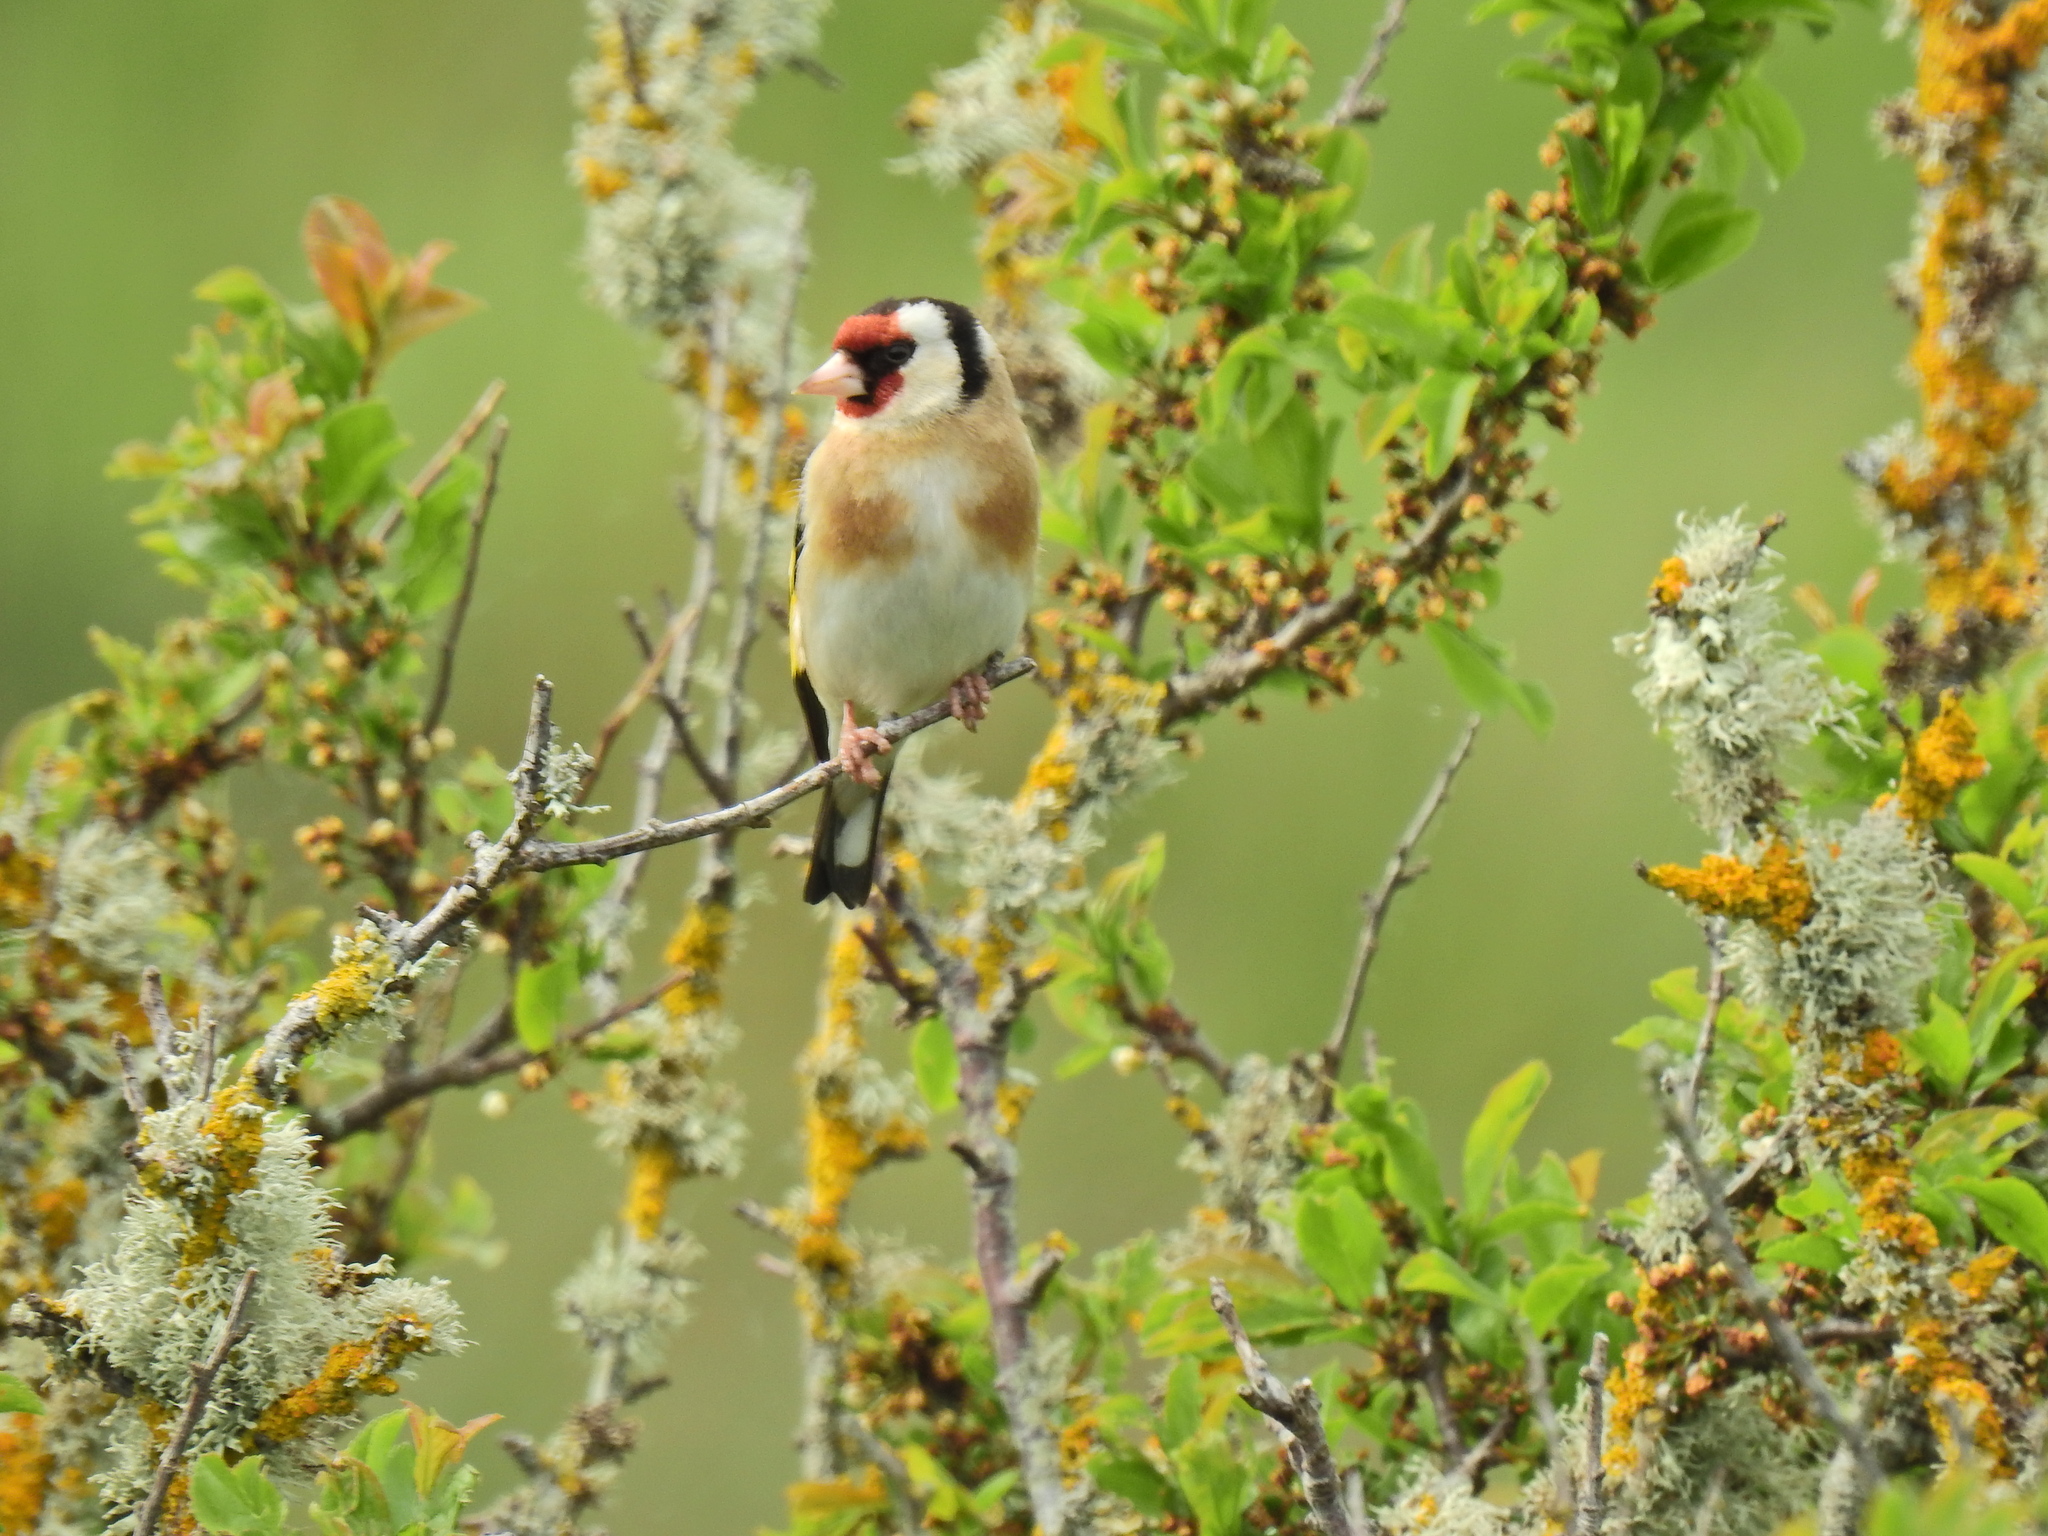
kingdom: Animalia
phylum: Chordata
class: Aves
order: Passeriformes
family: Fringillidae
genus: Carduelis
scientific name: Carduelis carduelis
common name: European goldfinch
